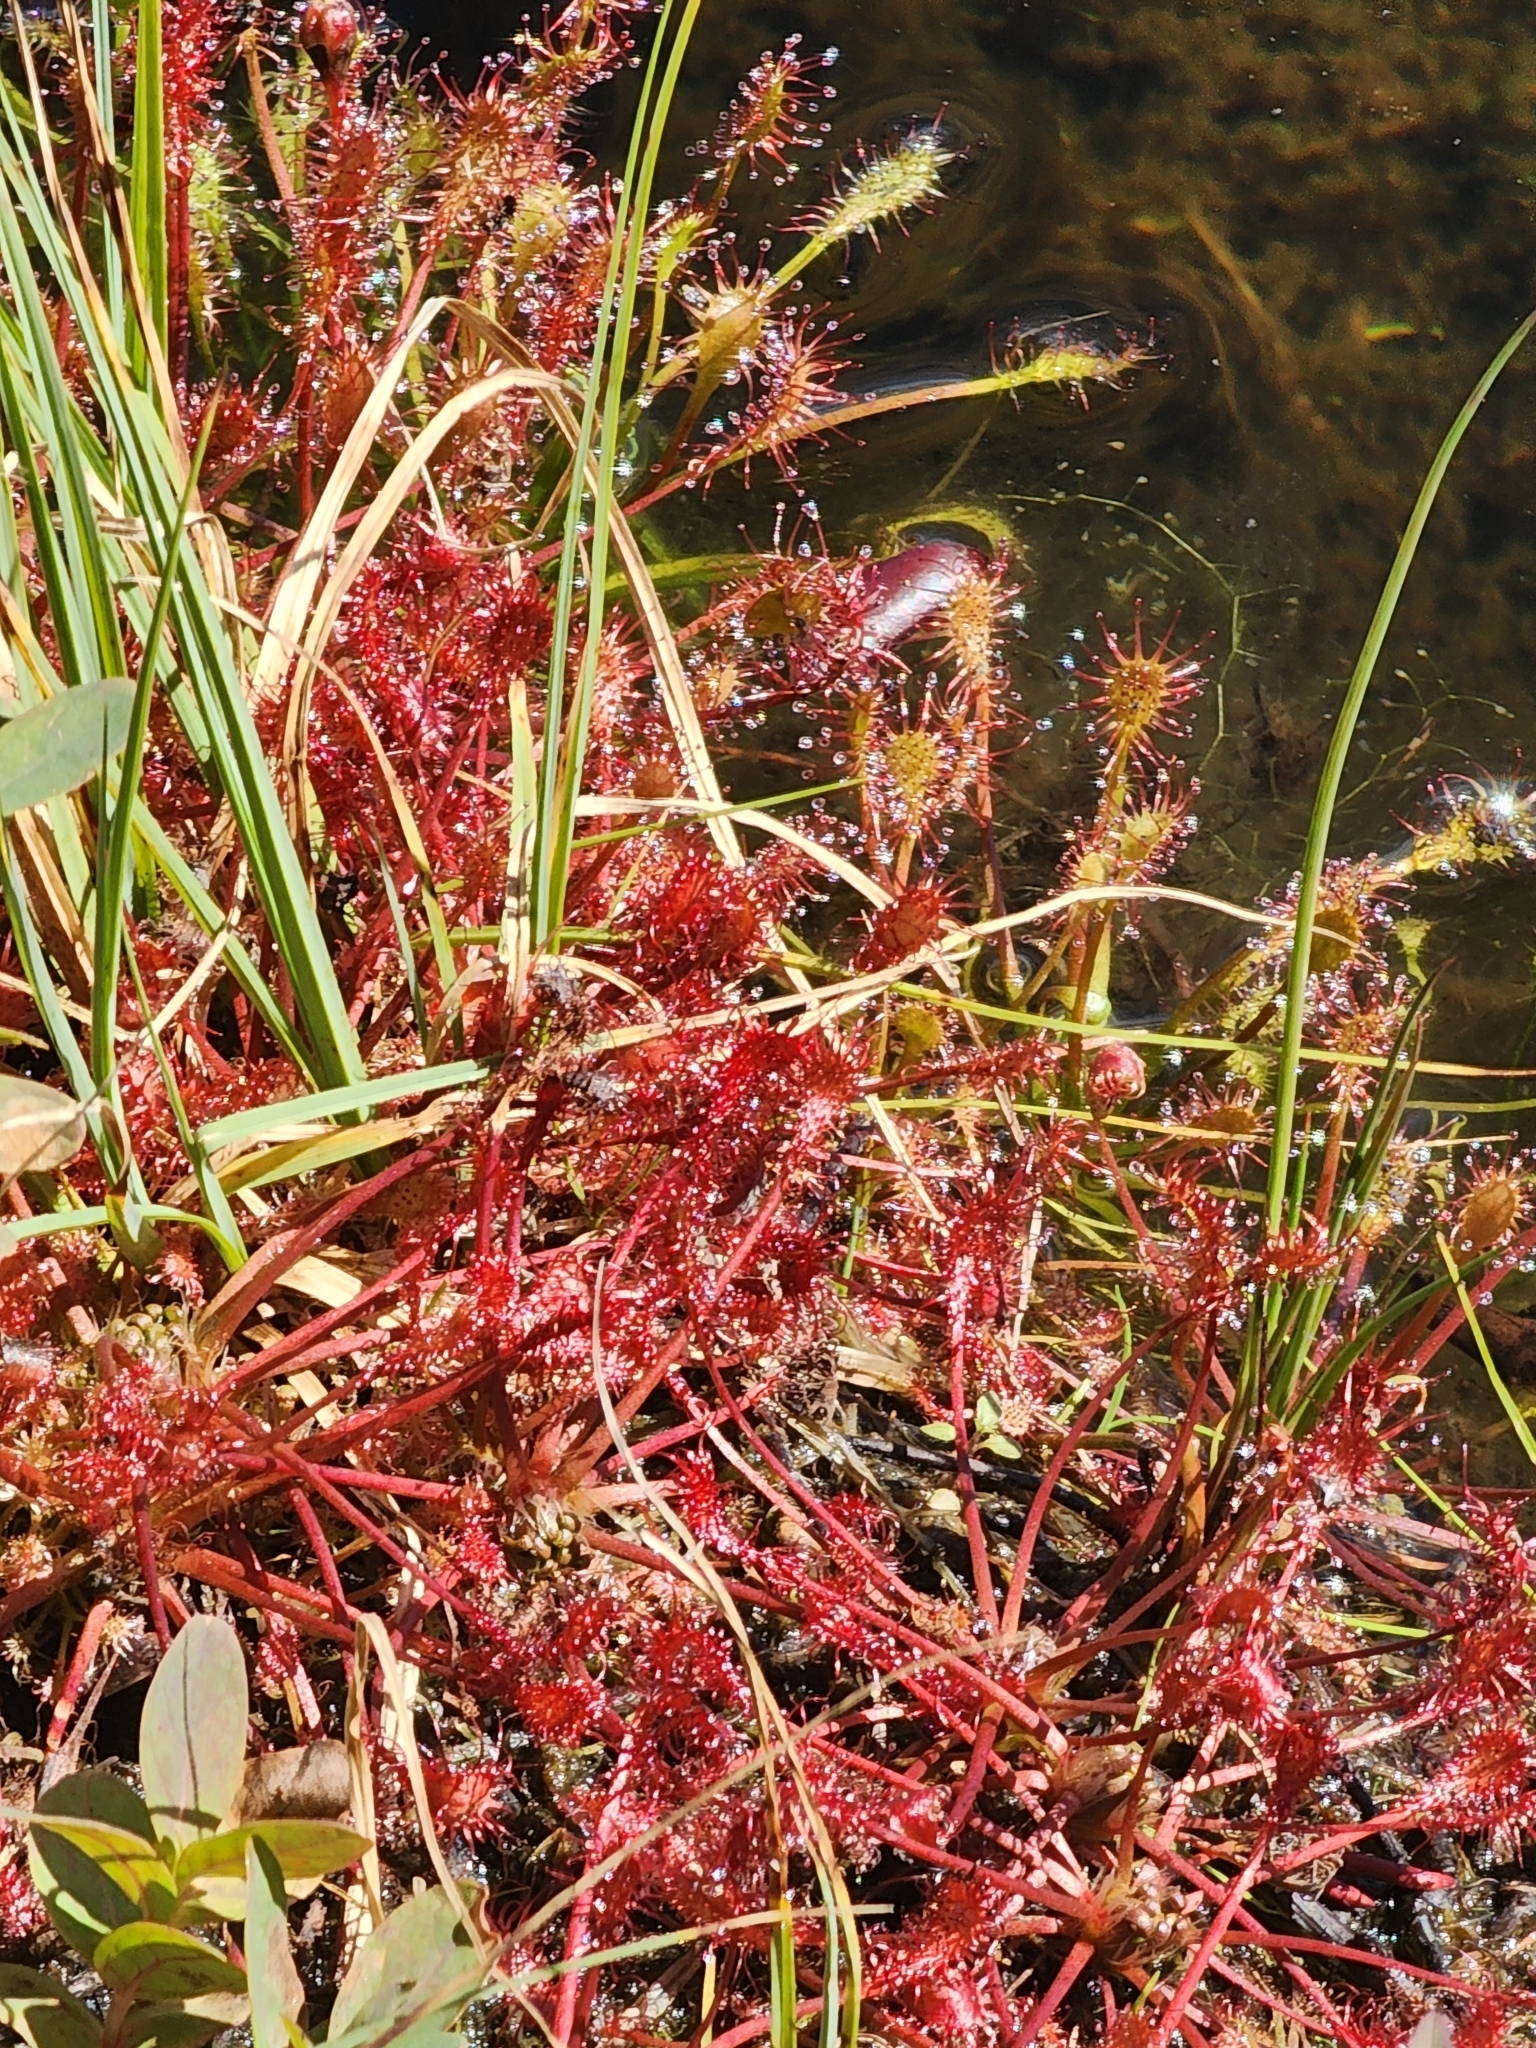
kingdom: Plantae
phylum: Tracheophyta
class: Magnoliopsida
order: Caryophyllales
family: Droseraceae
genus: Drosera
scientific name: Drosera intermedia
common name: Oblong-leaved sundew
